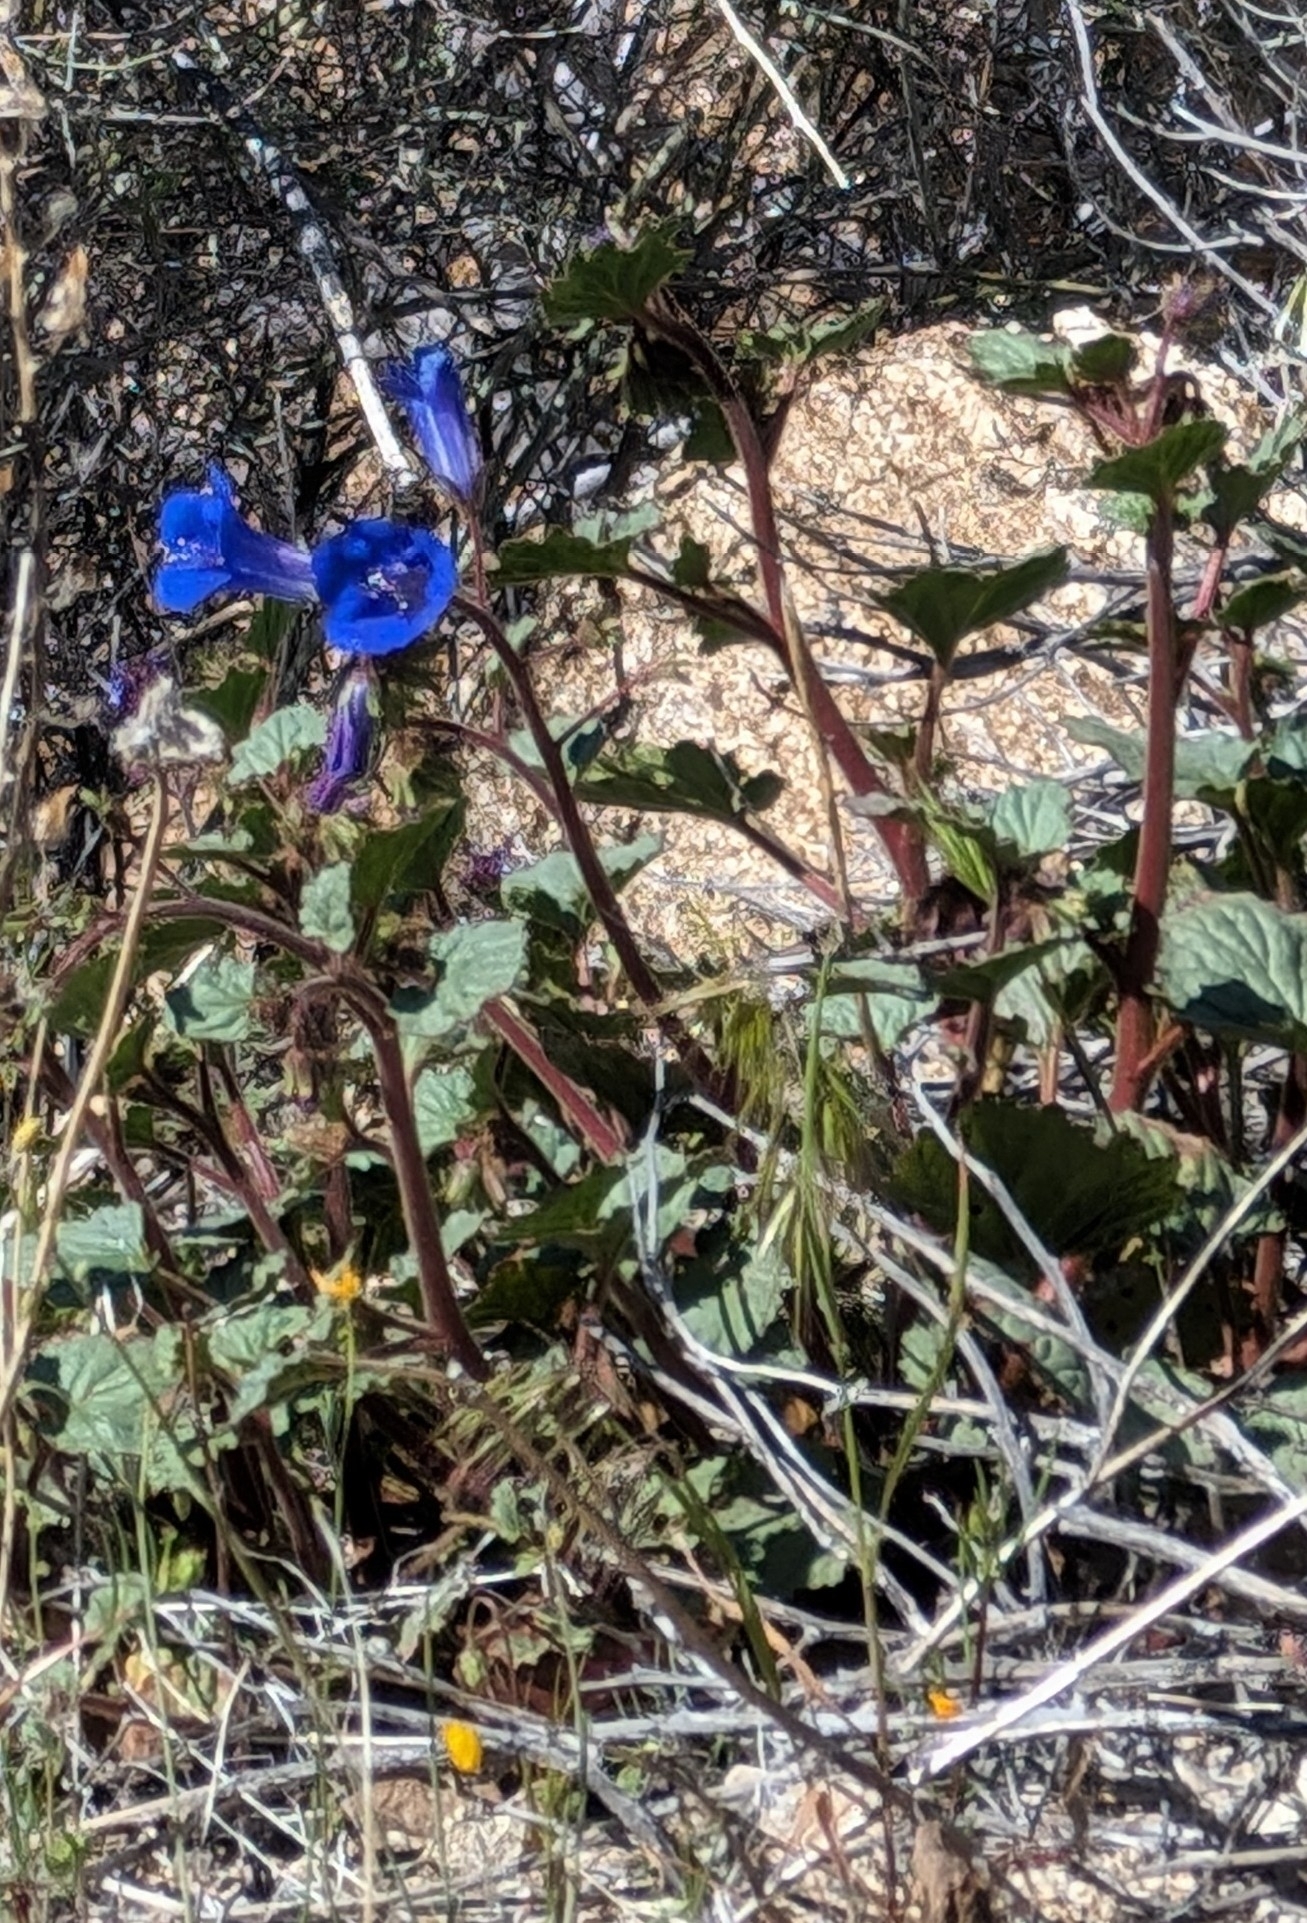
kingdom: Plantae
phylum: Tracheophyta
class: Magnoliopsida
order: Boraginales
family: Hydrophyllaceae
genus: Phacelia
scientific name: Phacelia campanularia
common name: California bluebell
